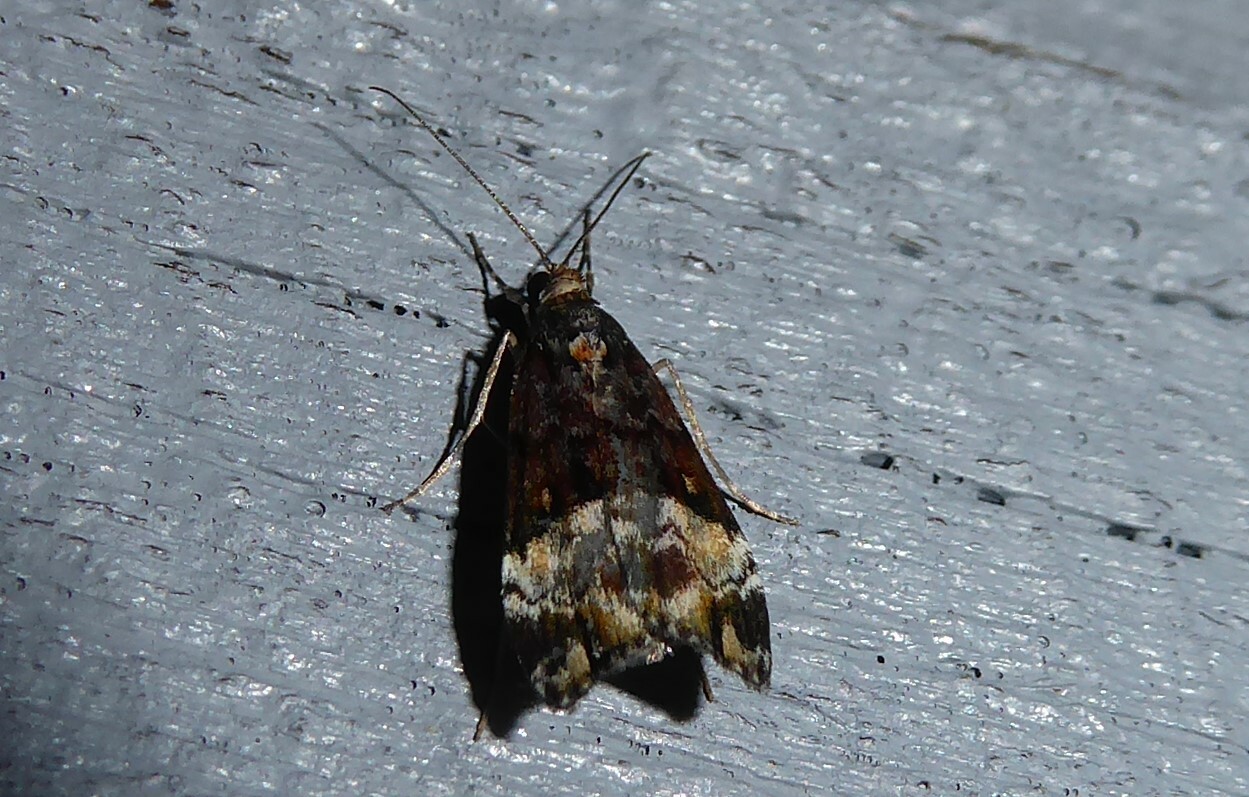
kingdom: Animalia
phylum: Arthropoda
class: Insecta
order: Lepidoptera
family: Crambidae
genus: Scoparia
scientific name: Scoparia minusculalis
